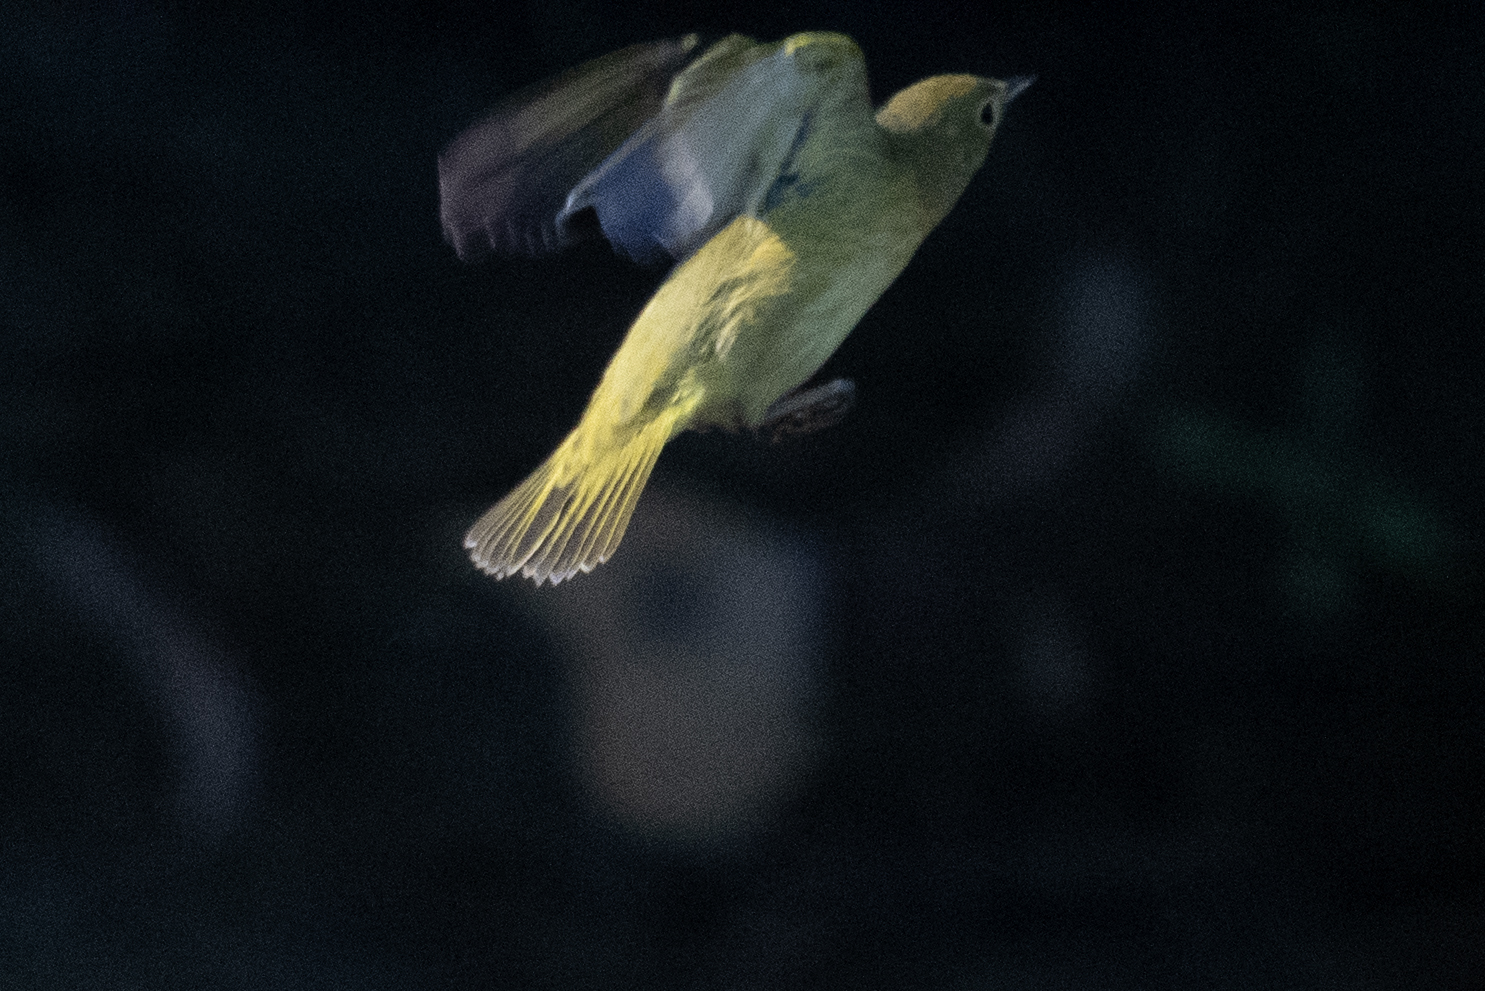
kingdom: Animalia
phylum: Chordata
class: Aves
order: Passeriformes
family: Parulidae
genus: Setophaga
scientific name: Setophaga petechia
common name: Yellow warbler
